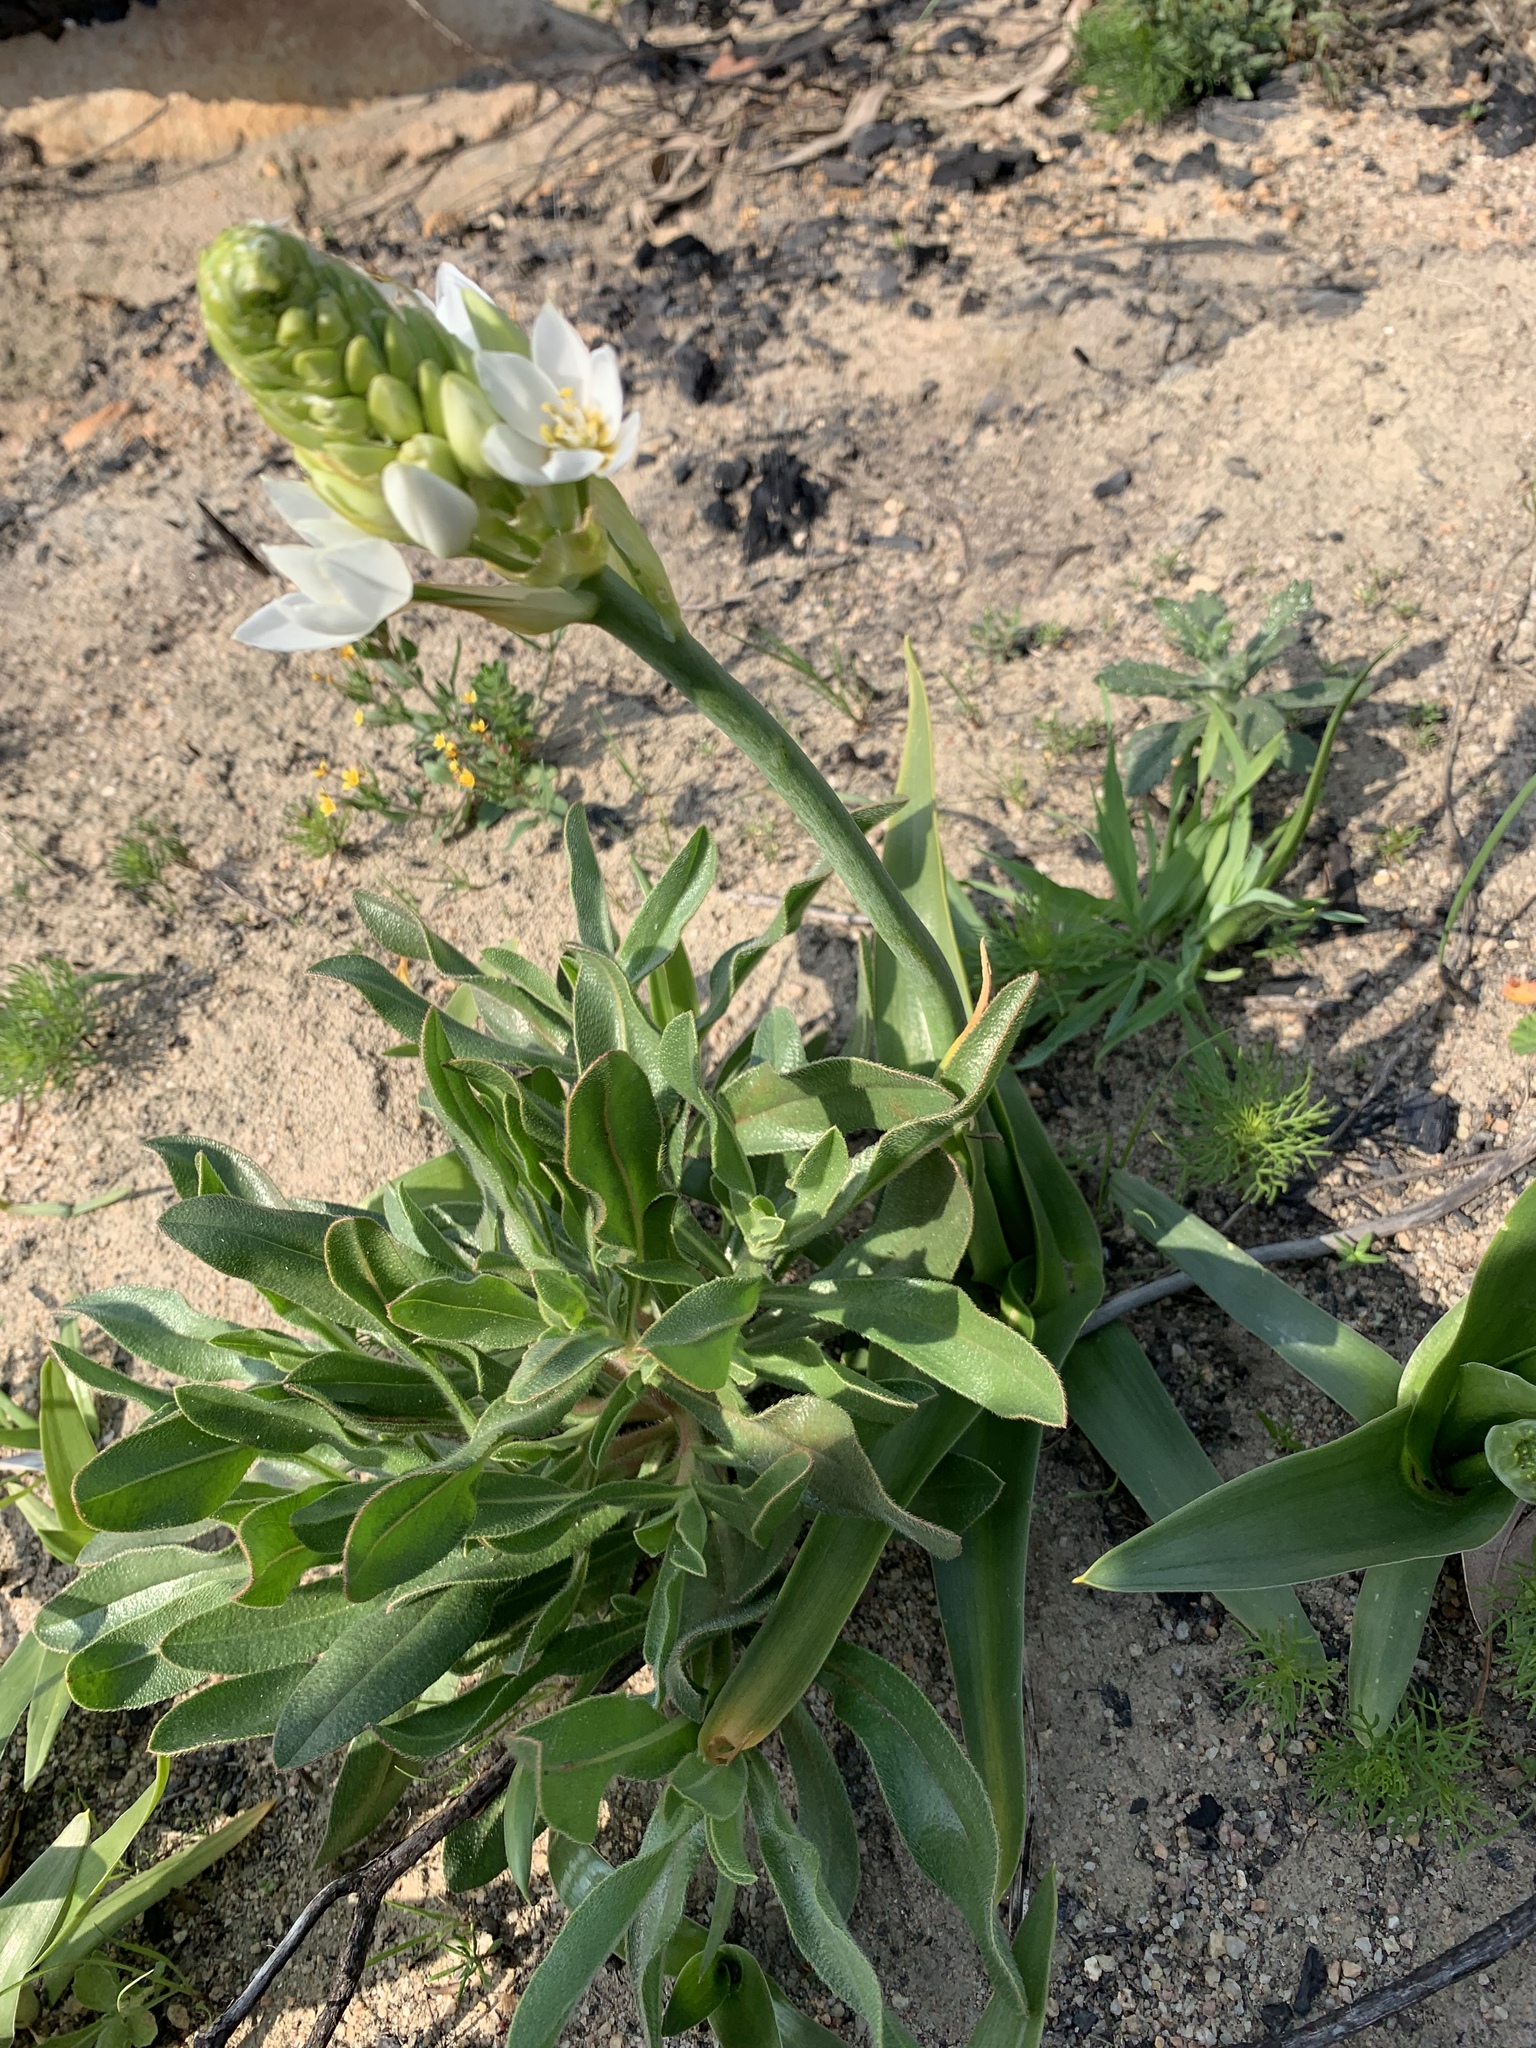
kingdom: Plantae
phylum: Tracheophyta
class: Liliopsida
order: Asparagales
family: Asparagaceae
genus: Ornithogalum
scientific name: Ornithogalum thyrsoides
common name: Chincherinchee
